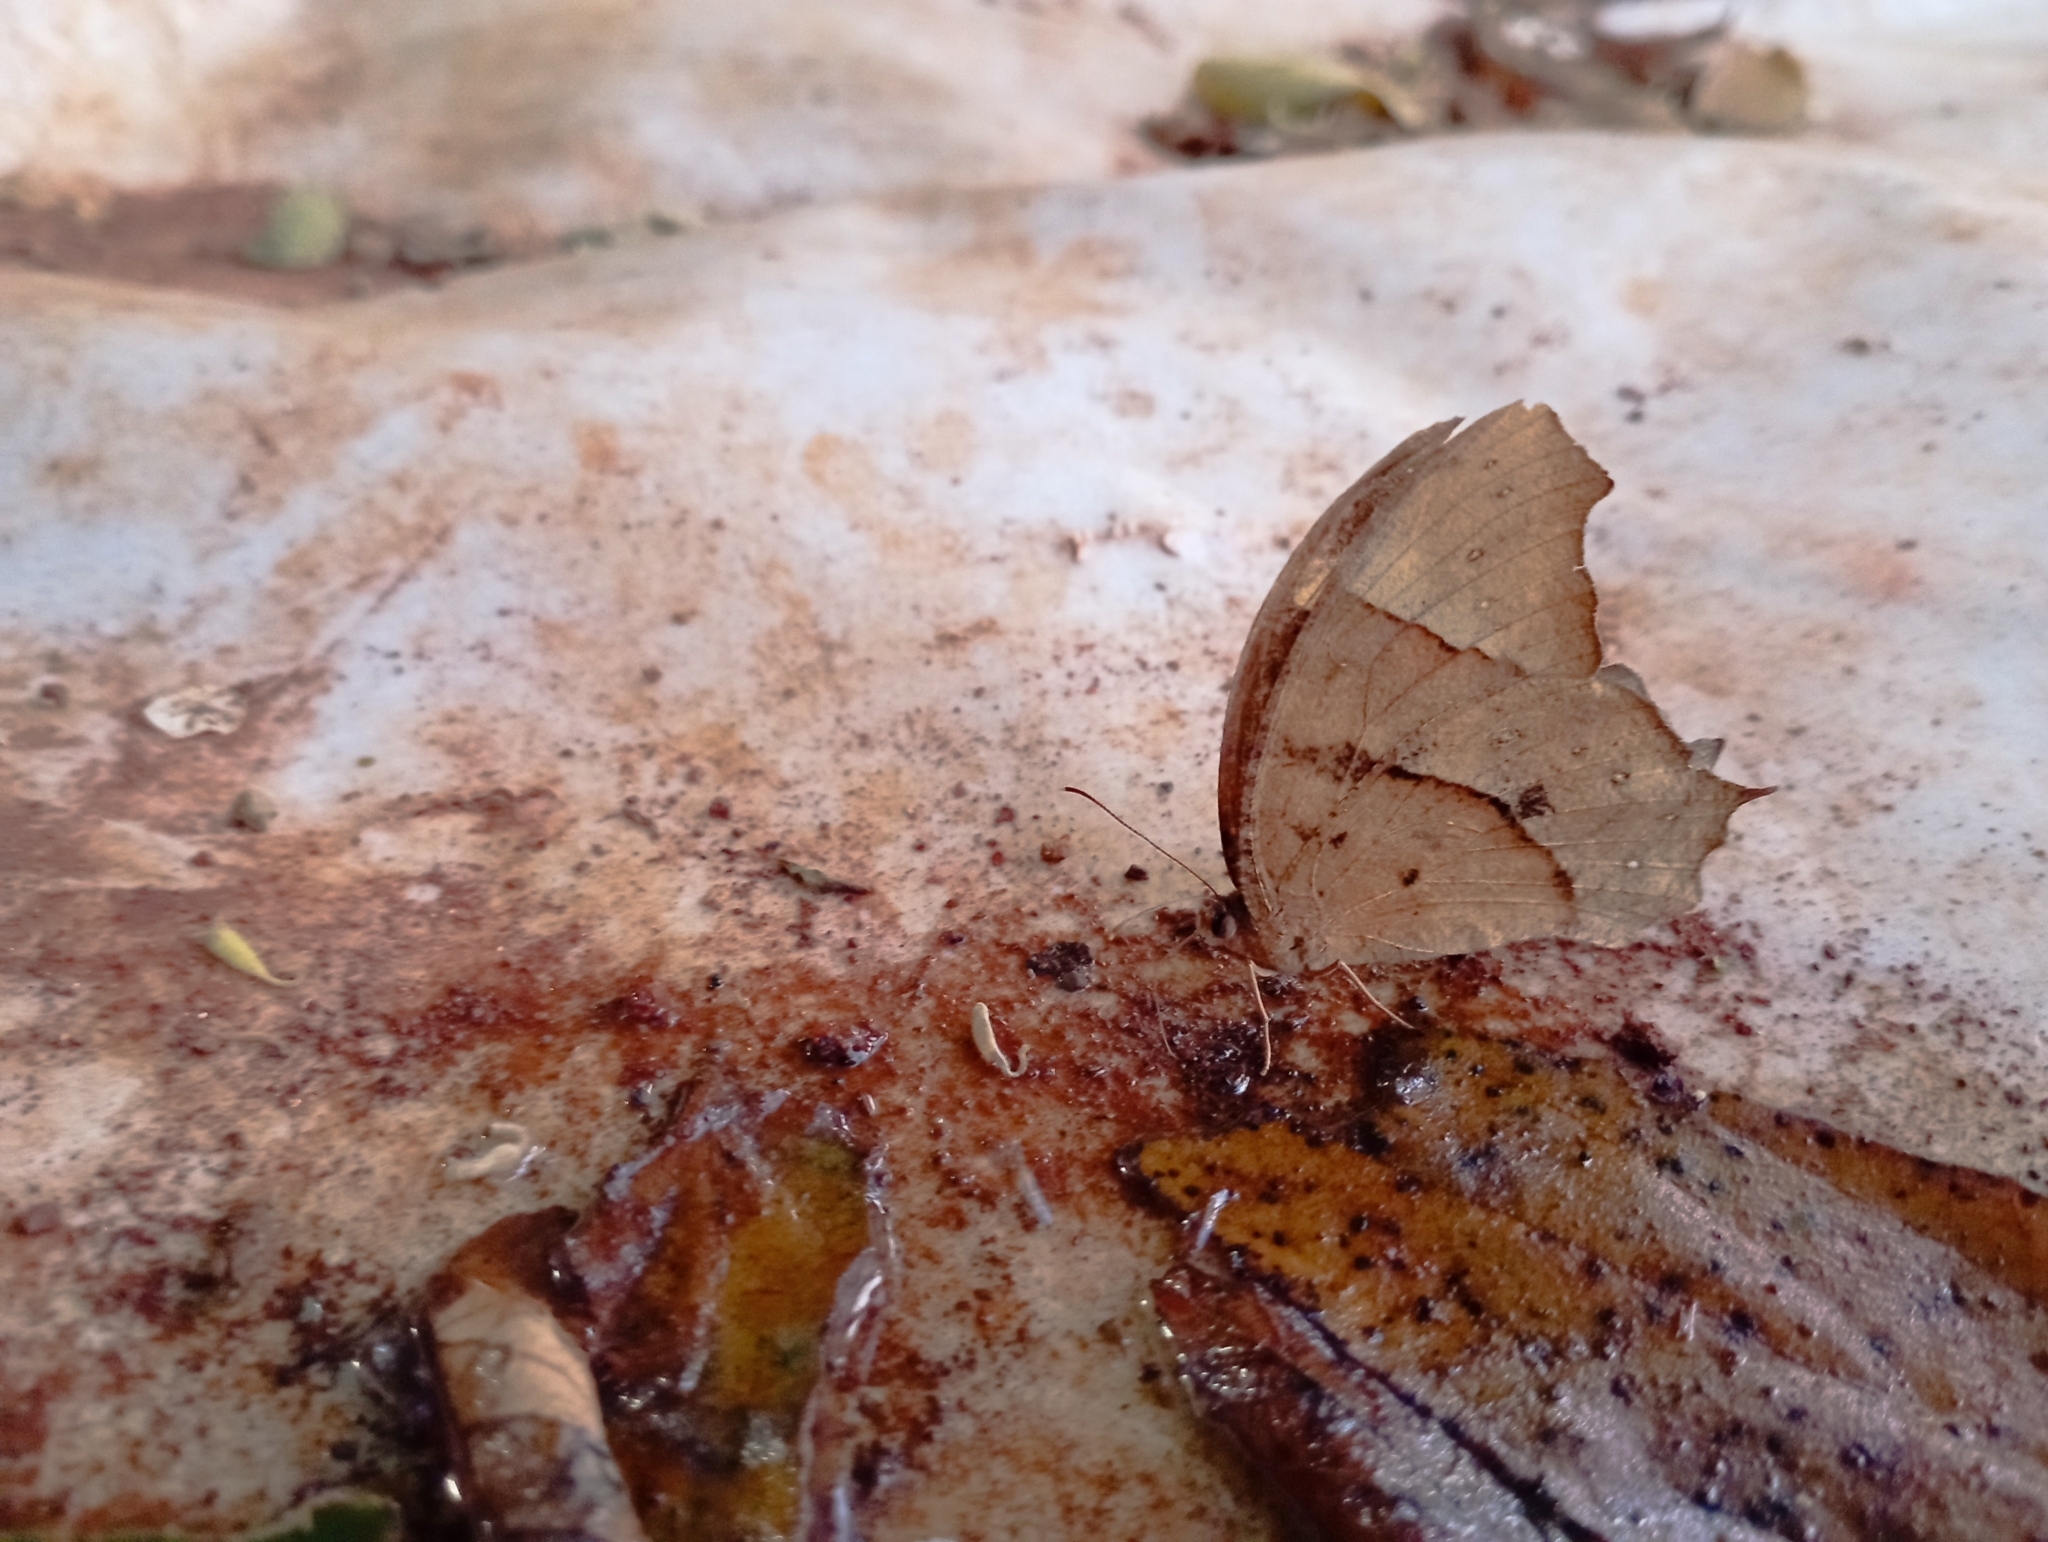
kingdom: Animalia
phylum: Arthropoda
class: Insecta
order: Lepidoptera
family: Nymphalidae
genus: Melanitis
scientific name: Melanitis leda
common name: Twilight brown
